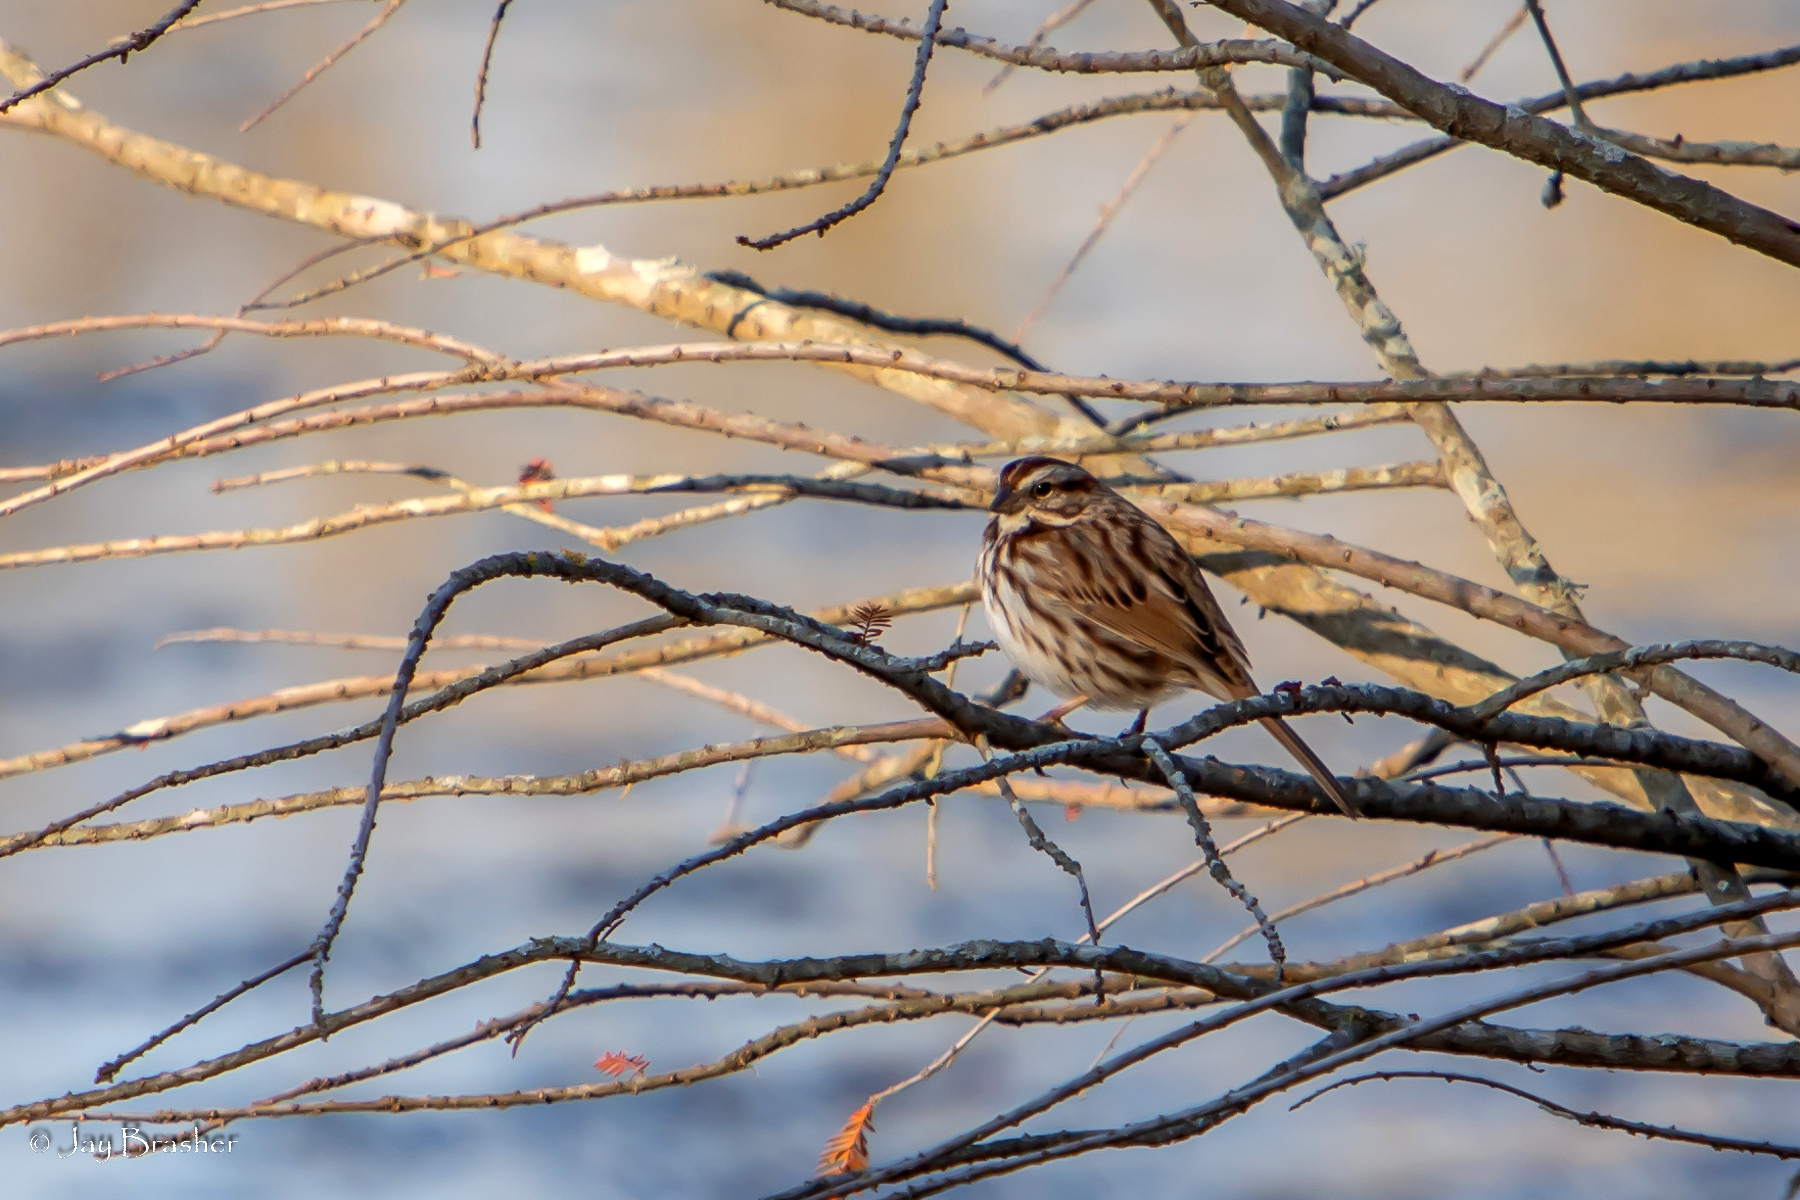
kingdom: Animalia
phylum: Chordata
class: Aves
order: Passeriformes
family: Passerellidae
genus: Melospiza
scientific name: Melospiza melodia
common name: Song sparrow
